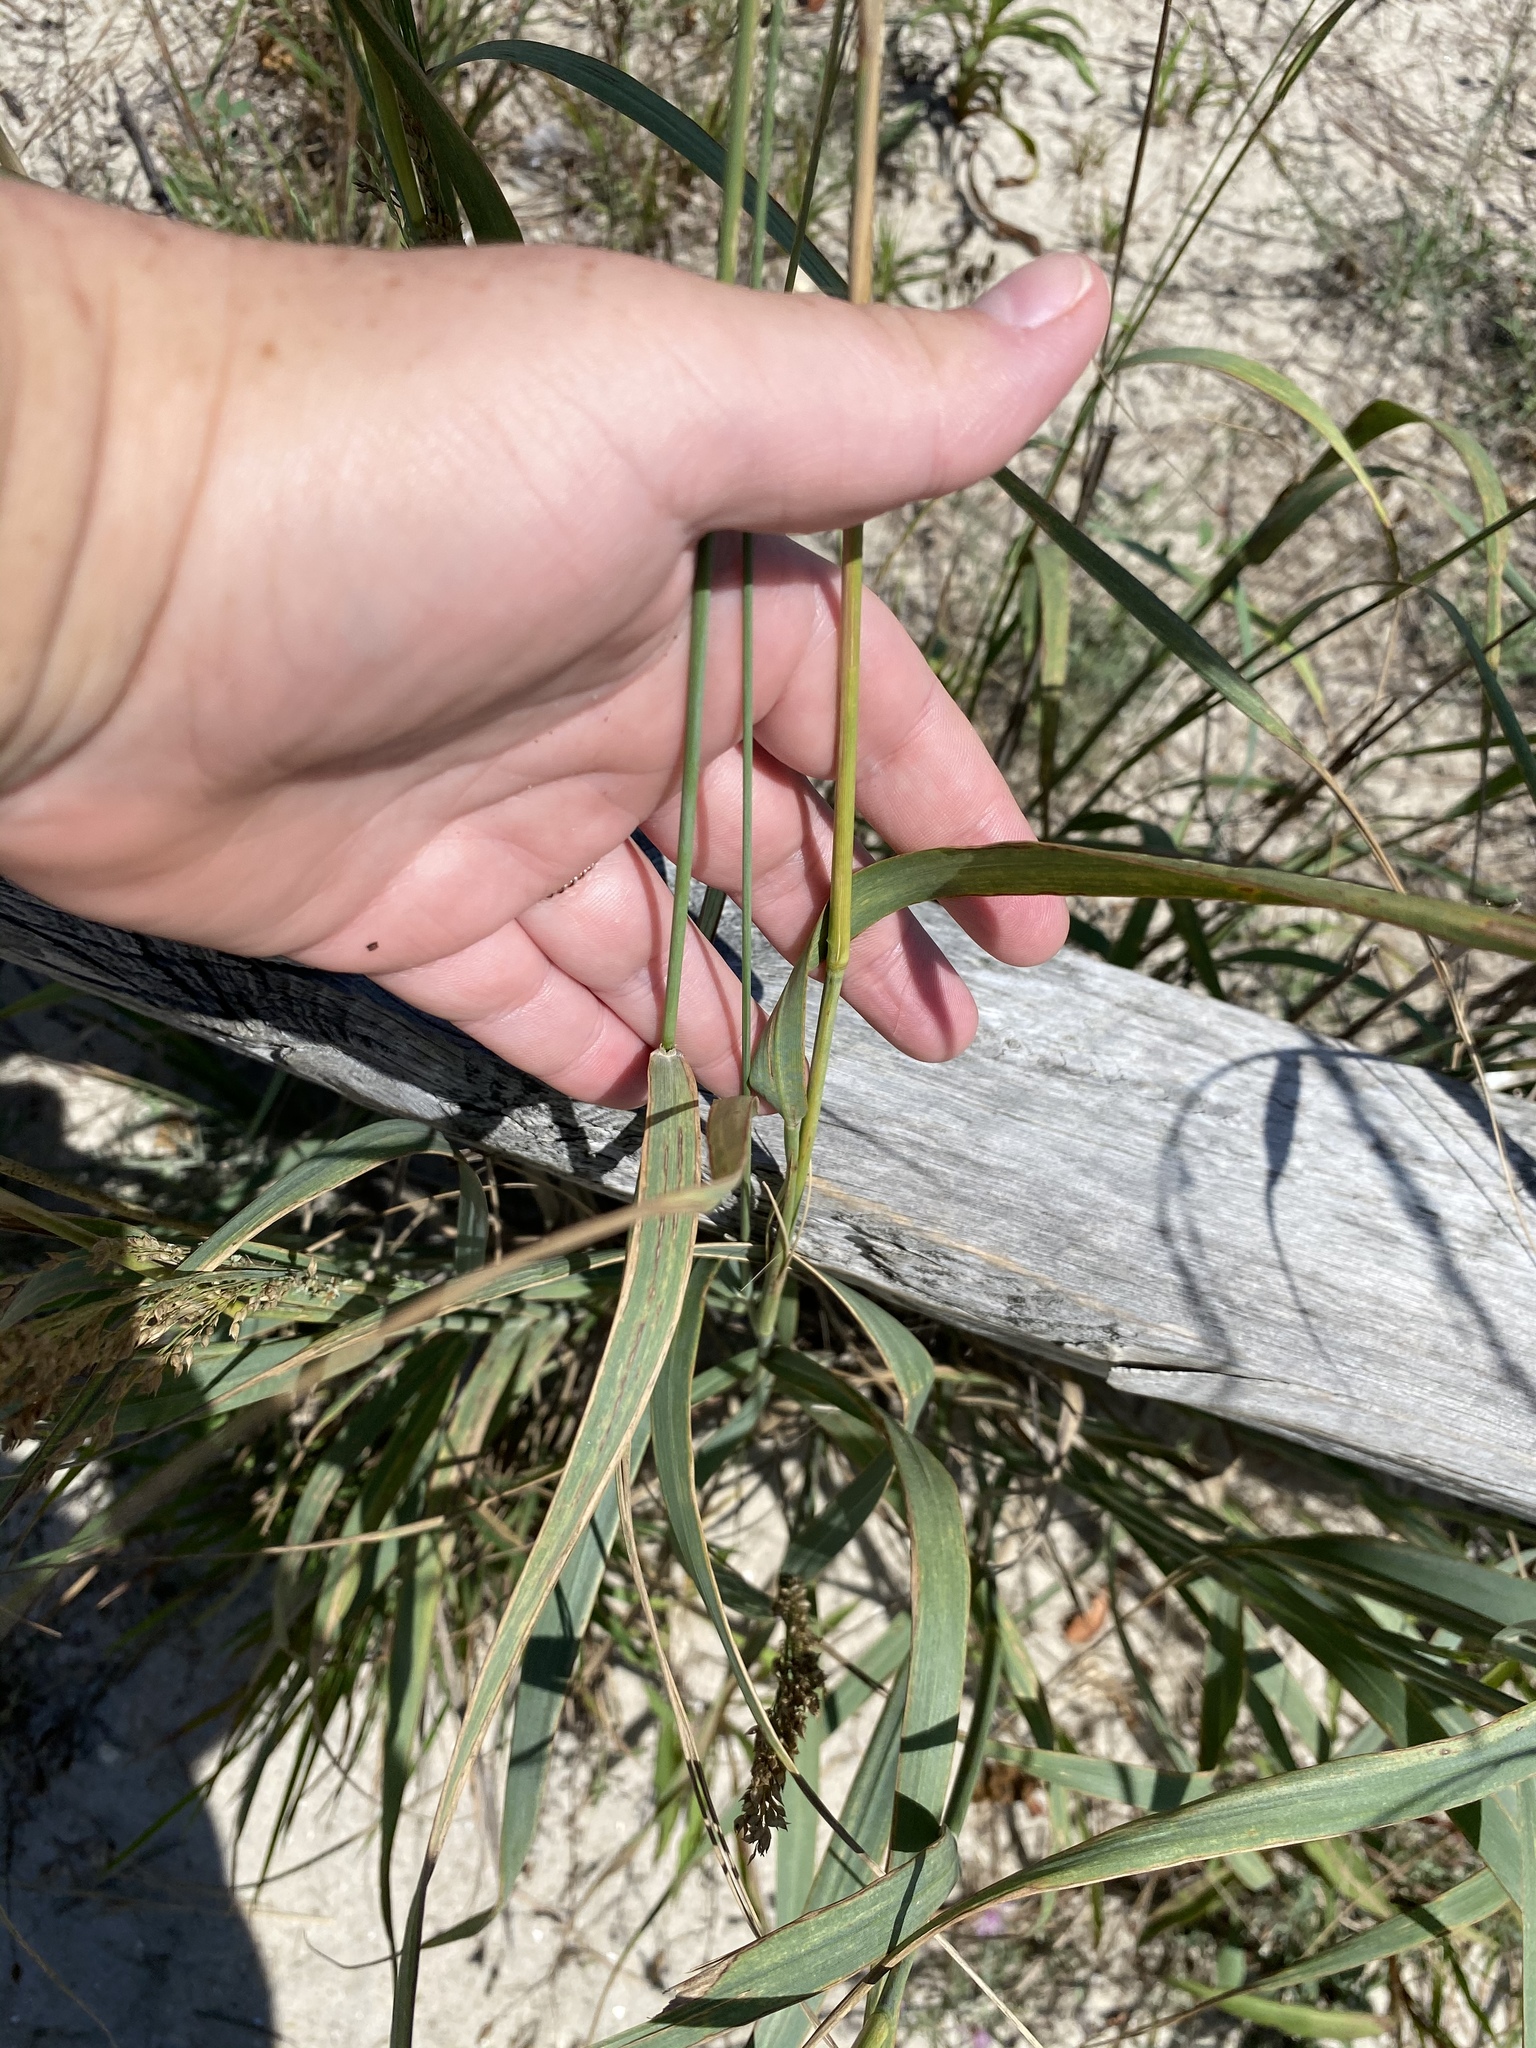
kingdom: Plantae
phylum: Tracheophyta
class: Liliopsida
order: Poales
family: Poaceae
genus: Panicum
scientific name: Panicum amarum
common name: Bitter panicum
